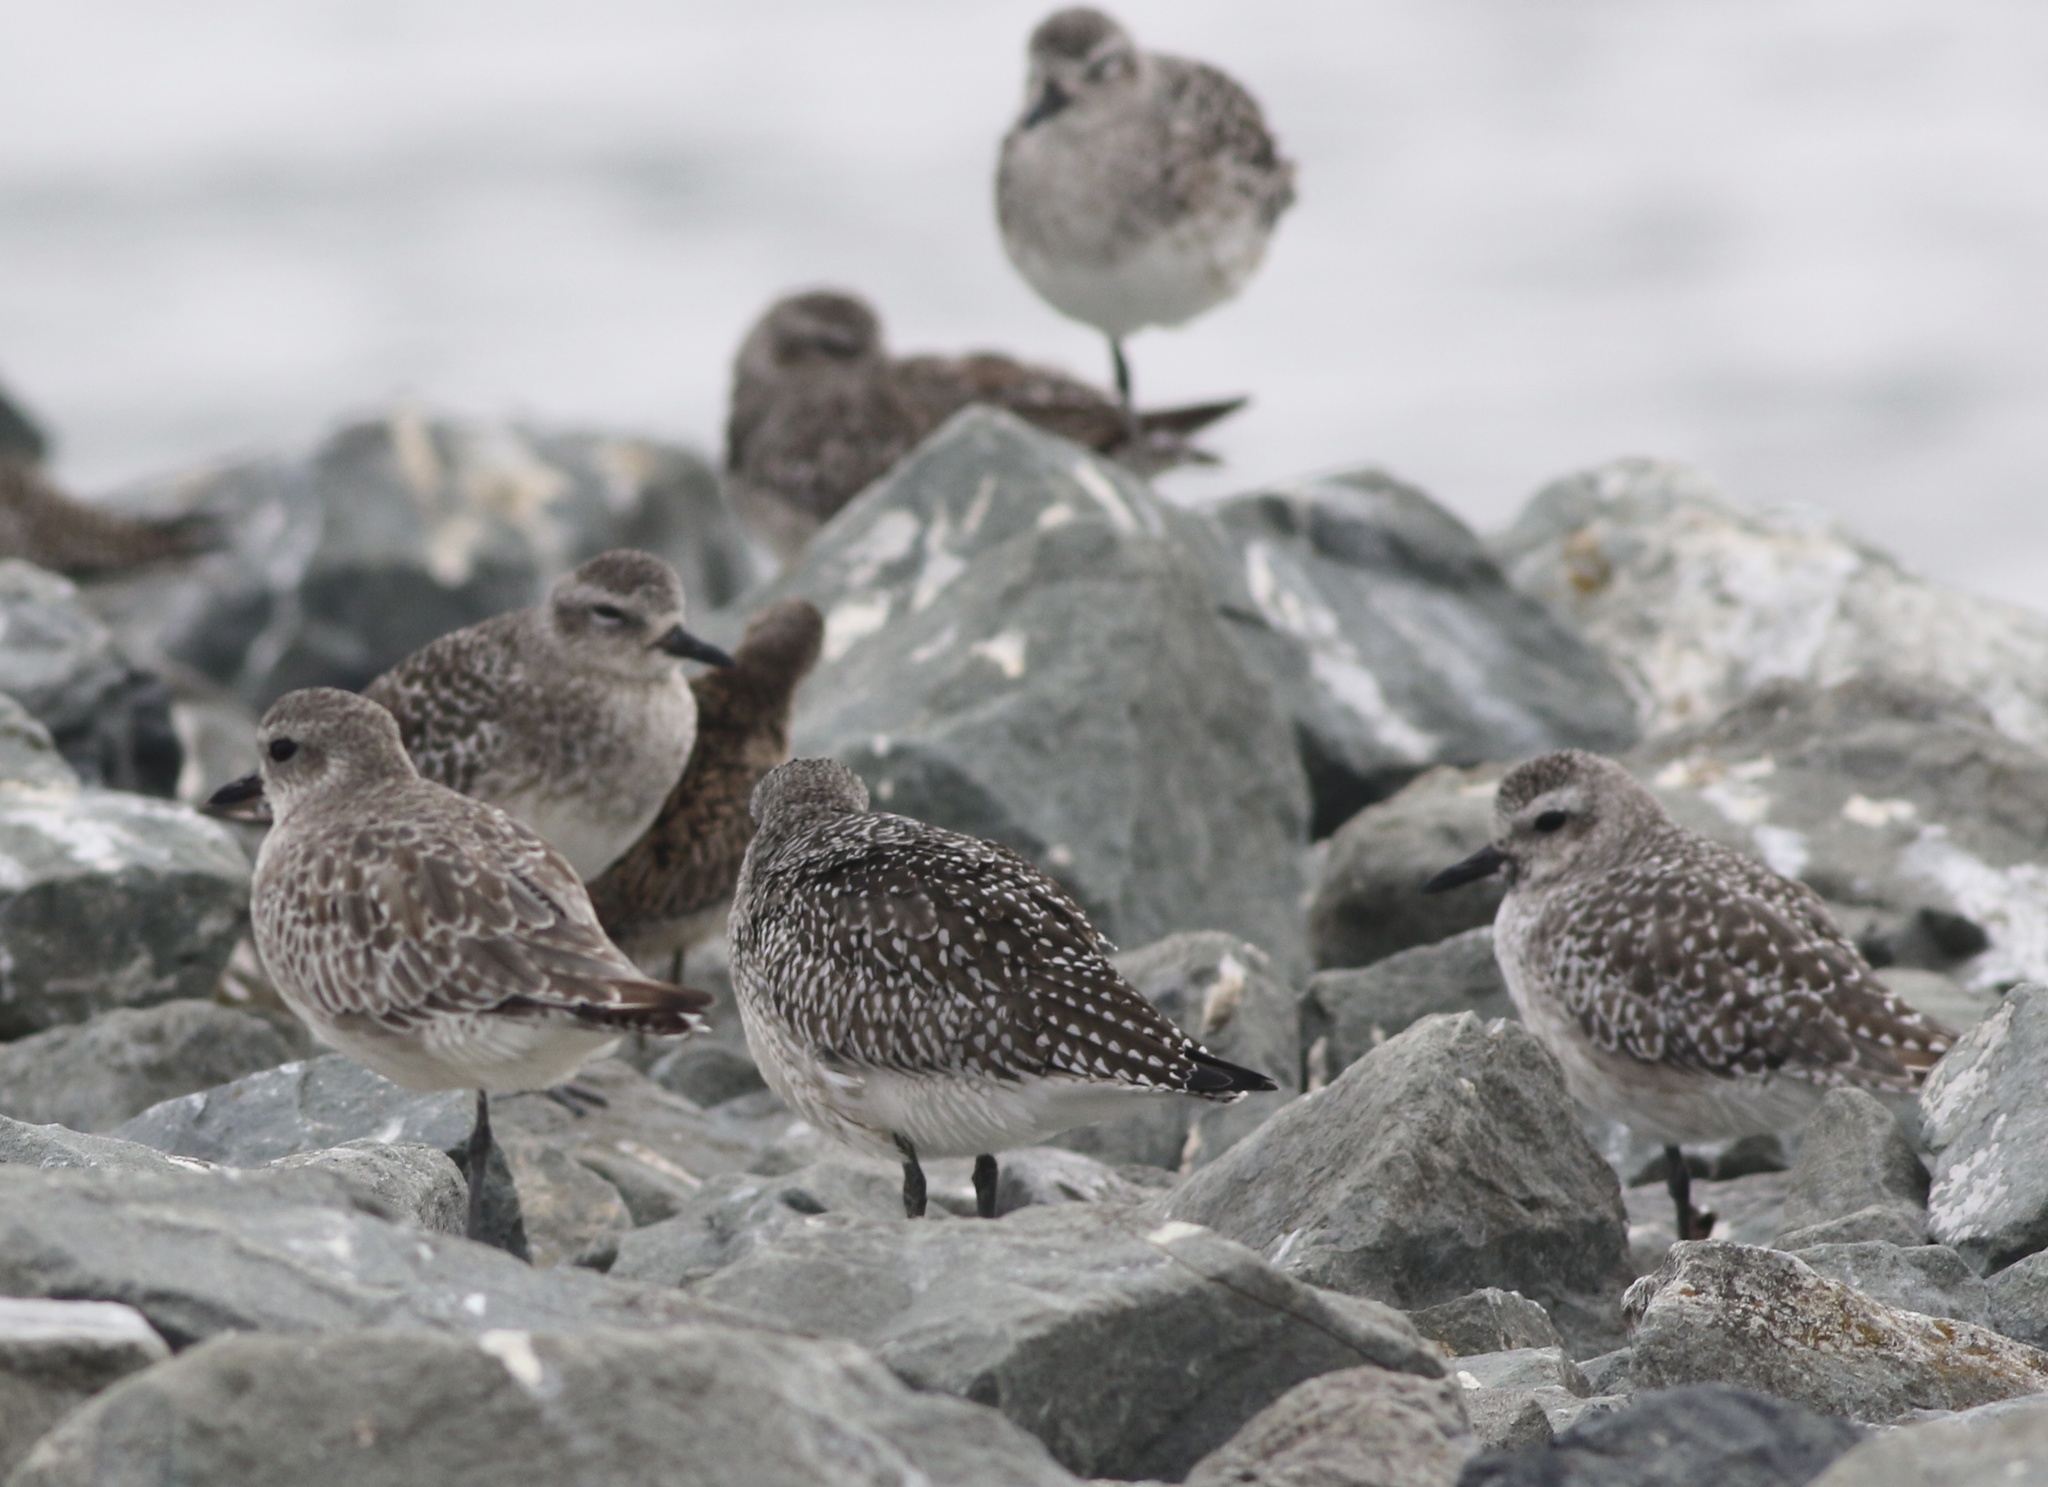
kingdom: Animalia
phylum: Chordata
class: Aves
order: Charadriiformes
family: Charadriidae
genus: Pluvialis
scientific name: Pluvialis squatarola
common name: Grey plover
